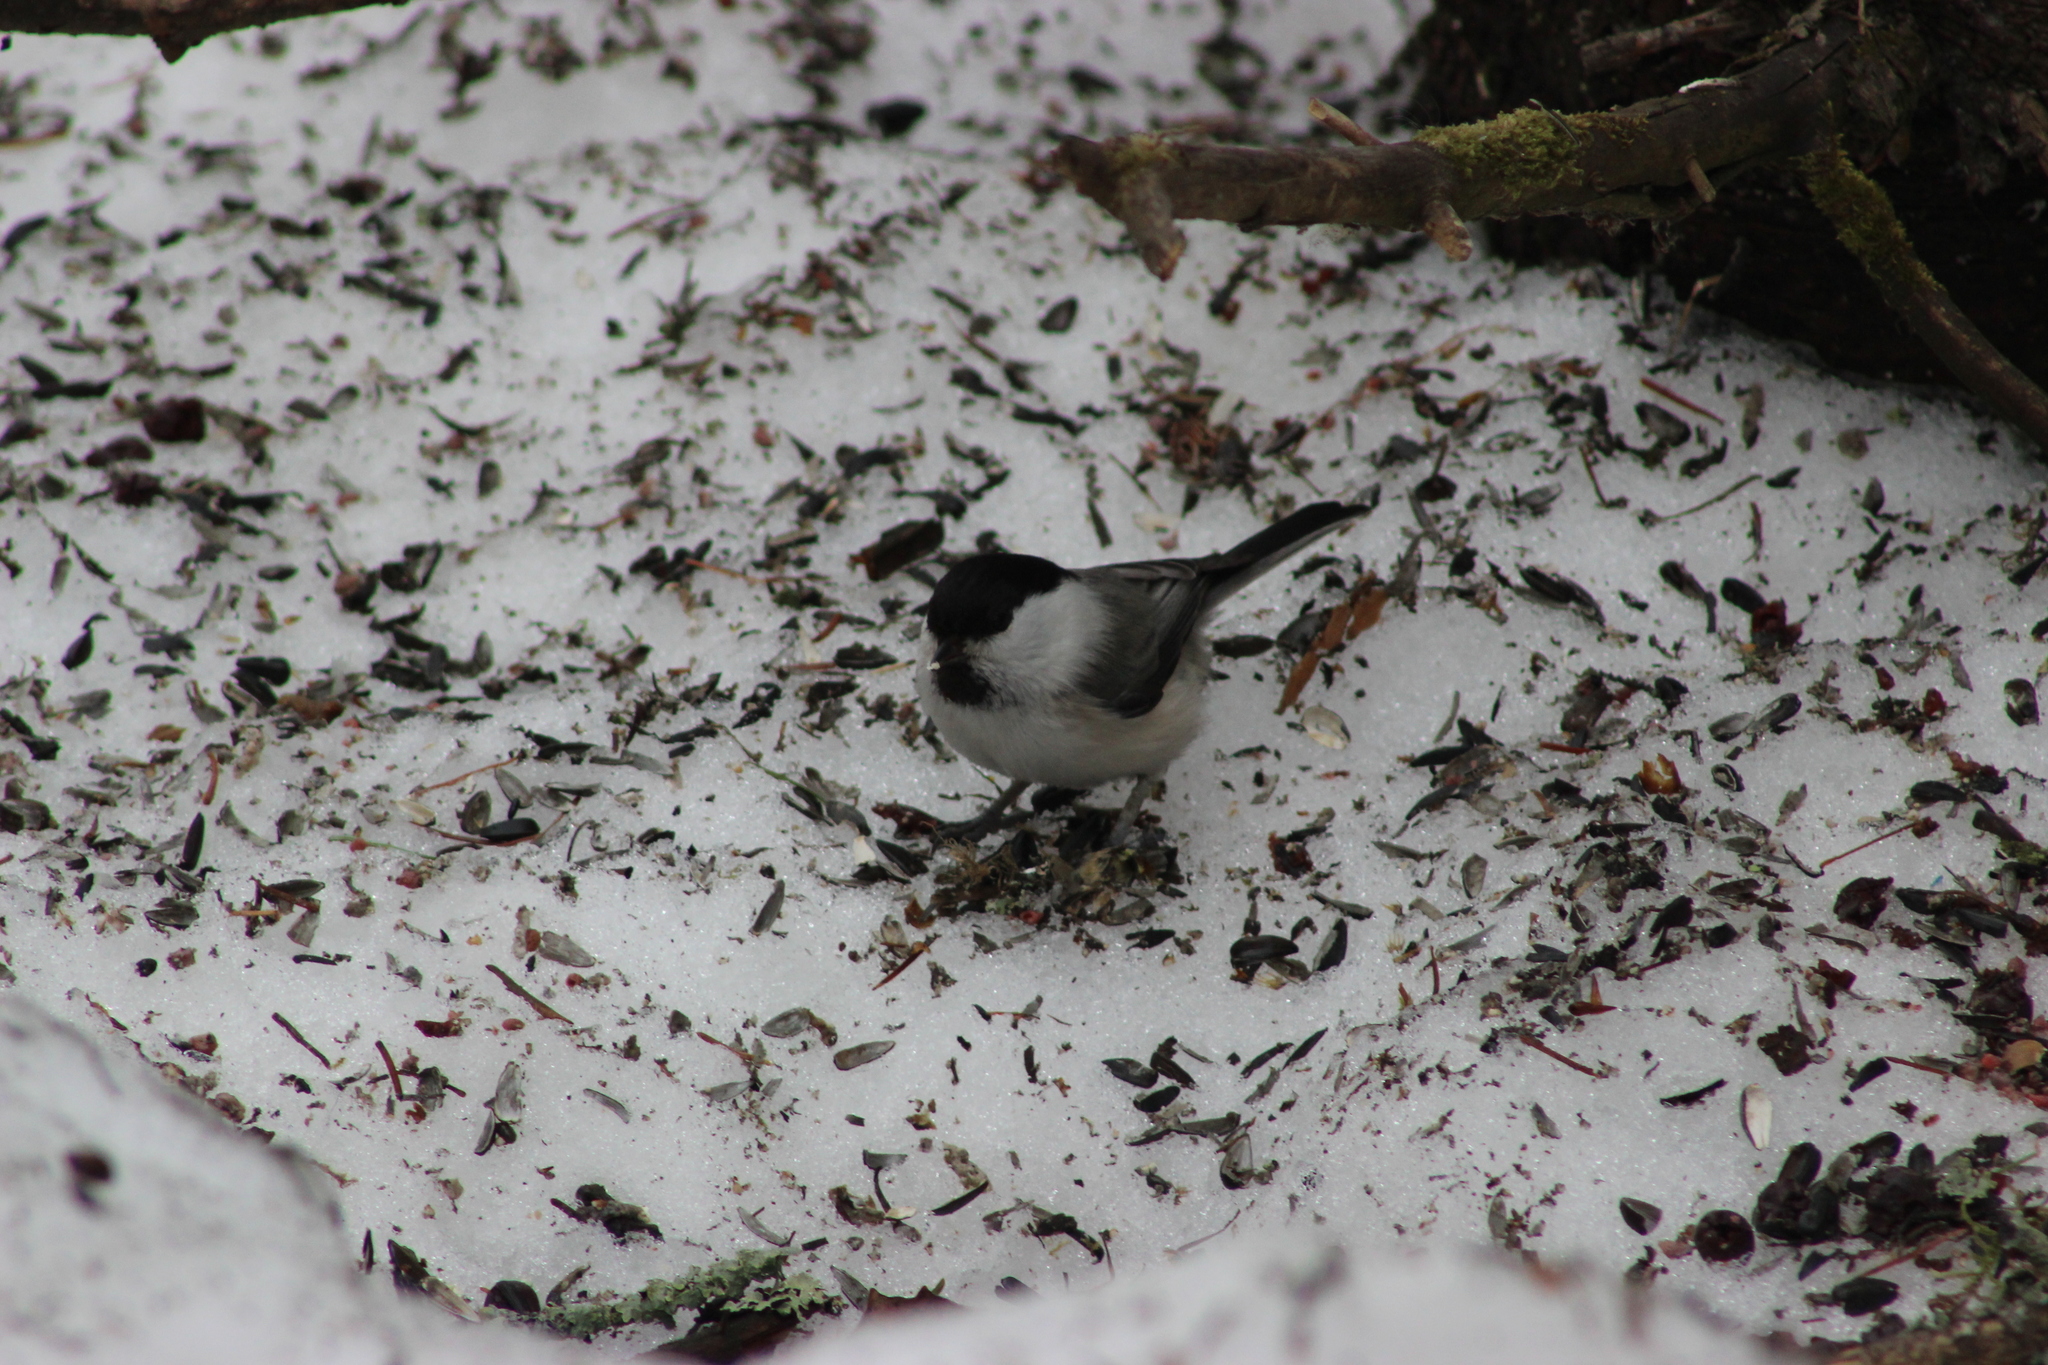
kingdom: Animalia
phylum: Chordata
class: Aves
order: Passeriformes
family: Paridae
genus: Poecile
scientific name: Poecile montanus
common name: Willow tit
